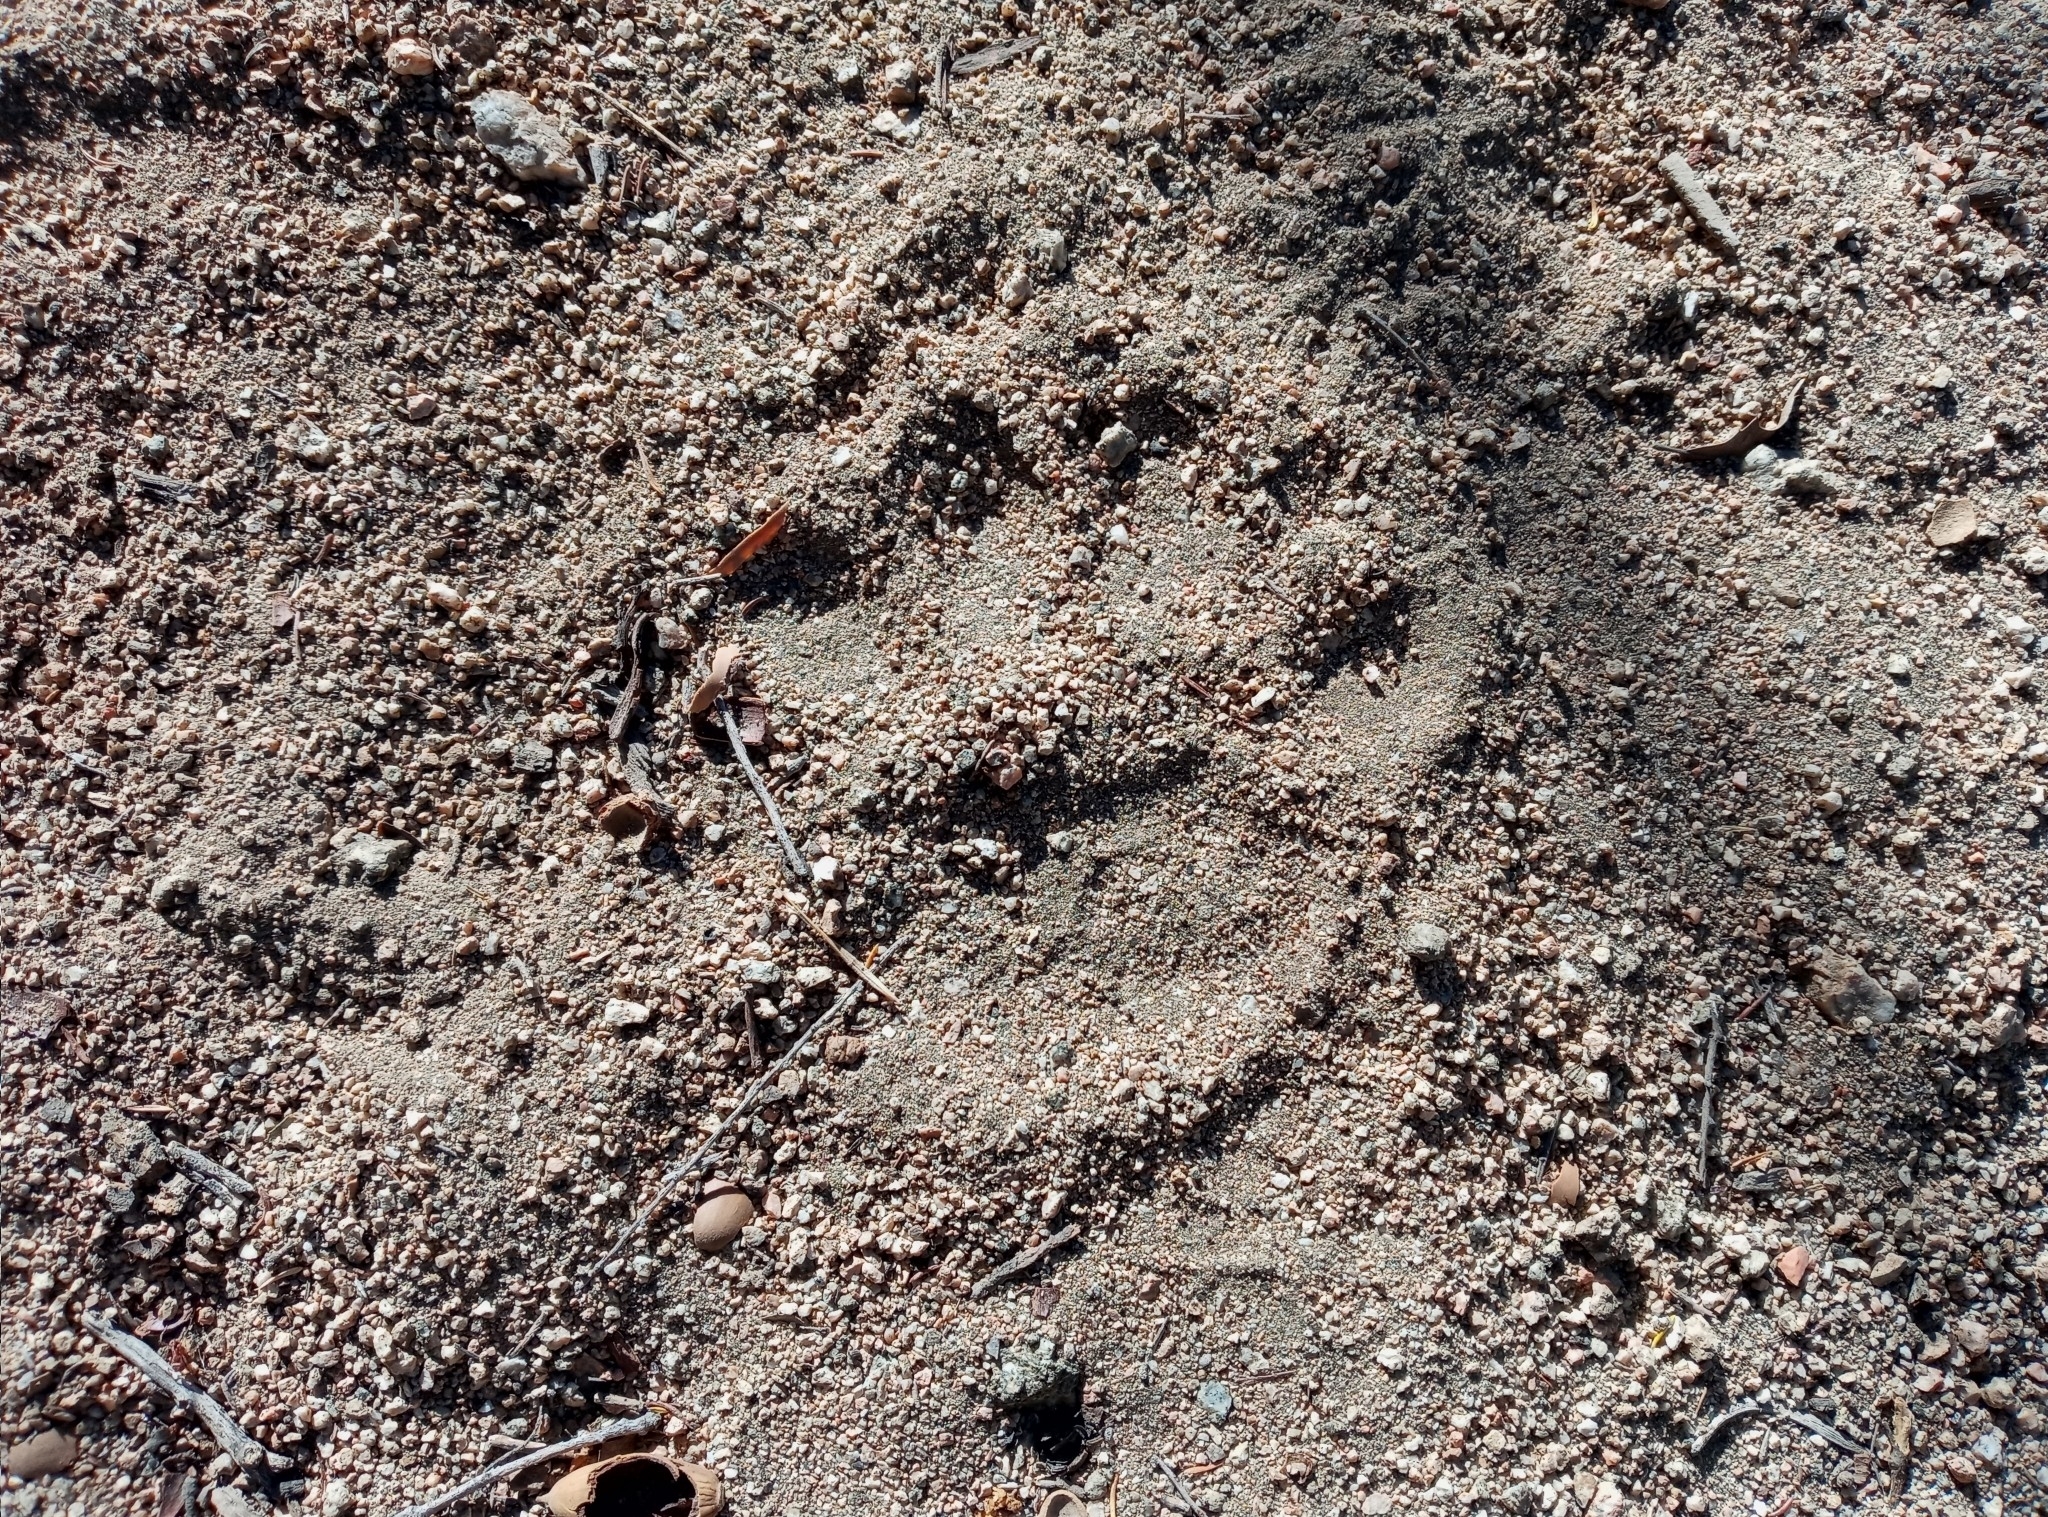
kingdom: Animalia
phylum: Chordata
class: Mammalia
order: Carnivora
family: Ursidae
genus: Ursus
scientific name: Ursus americanus
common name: American black bear
